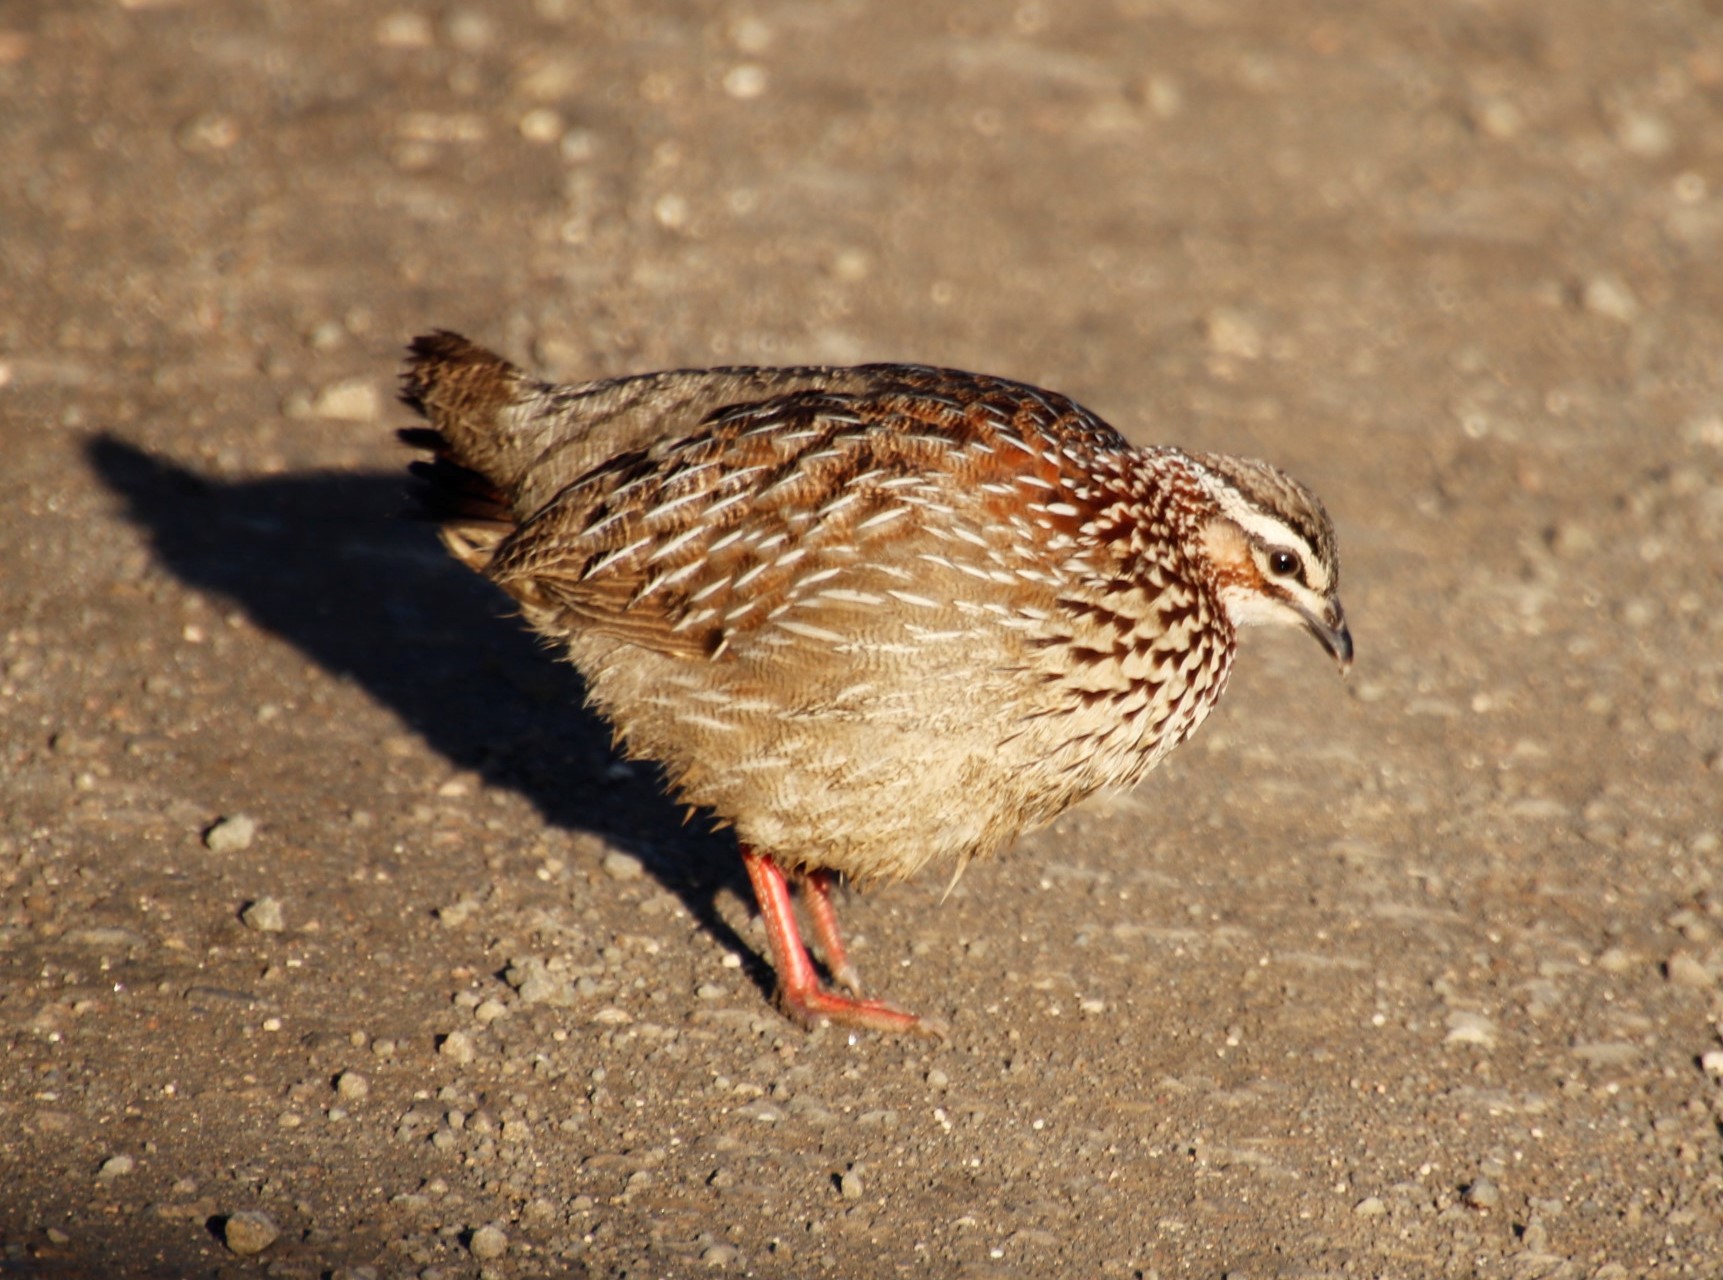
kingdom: Animalia
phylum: Chordata
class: Aves
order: Galliformes
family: Phasianidae
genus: Ortygornis
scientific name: Ortygornis sephaena
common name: Crested francolin
